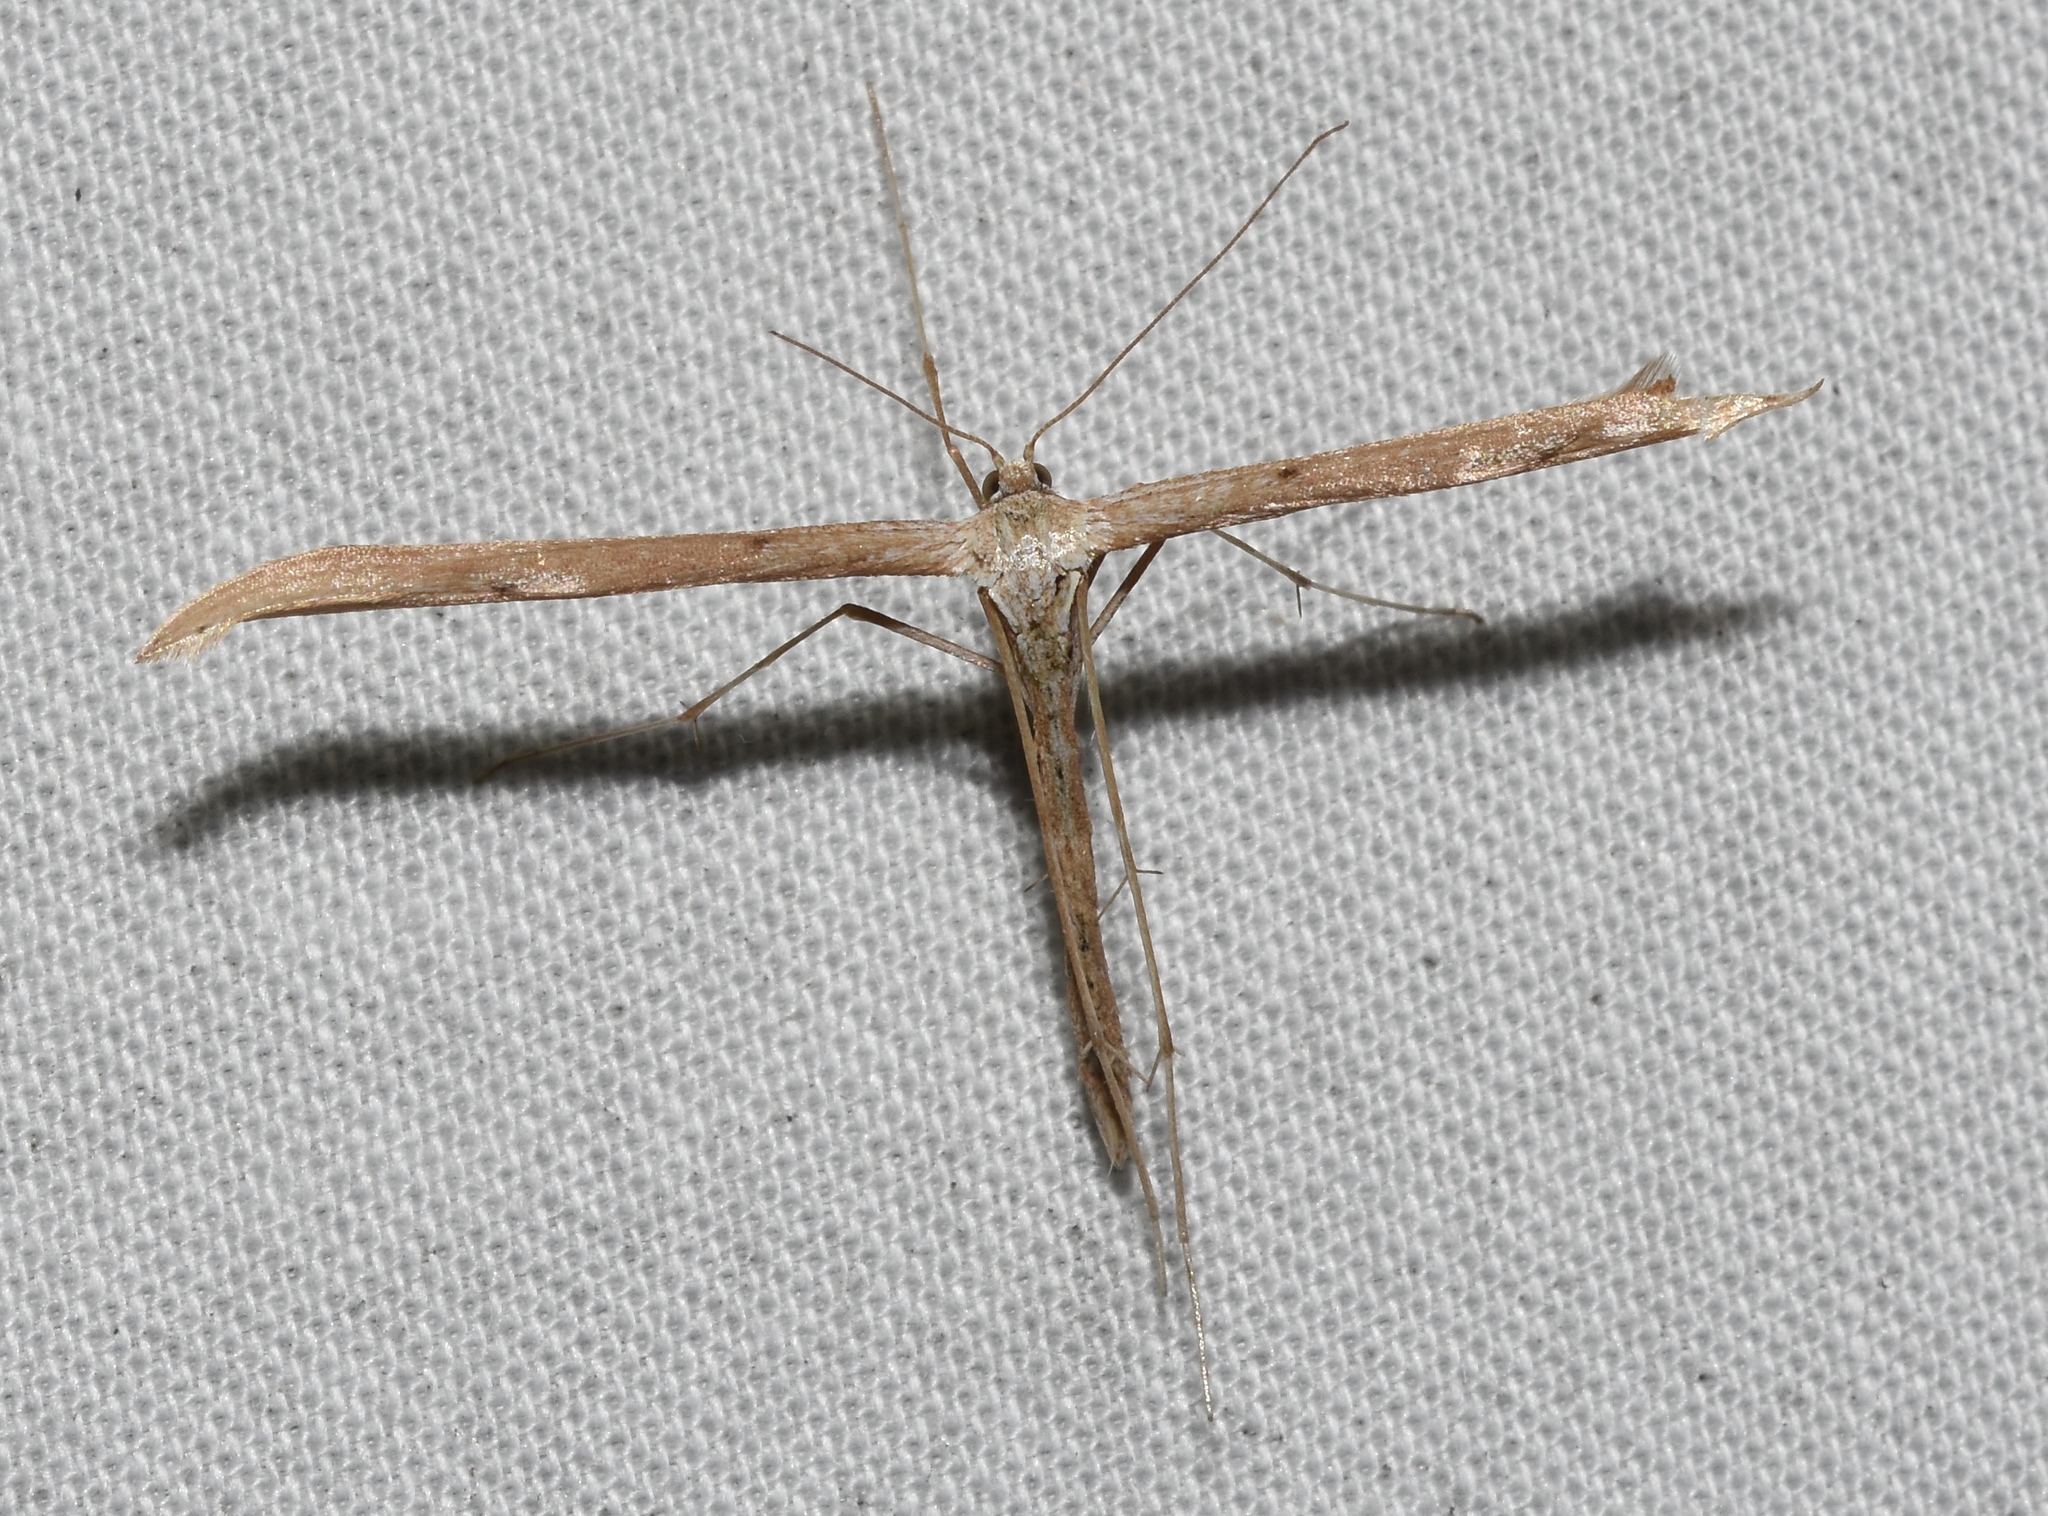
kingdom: Animalia
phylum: Arthropoda
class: Insecta
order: Lepidoptera
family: Pterophoridae
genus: Emmelina
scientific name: Emmelina monodactyla
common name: Common plume
